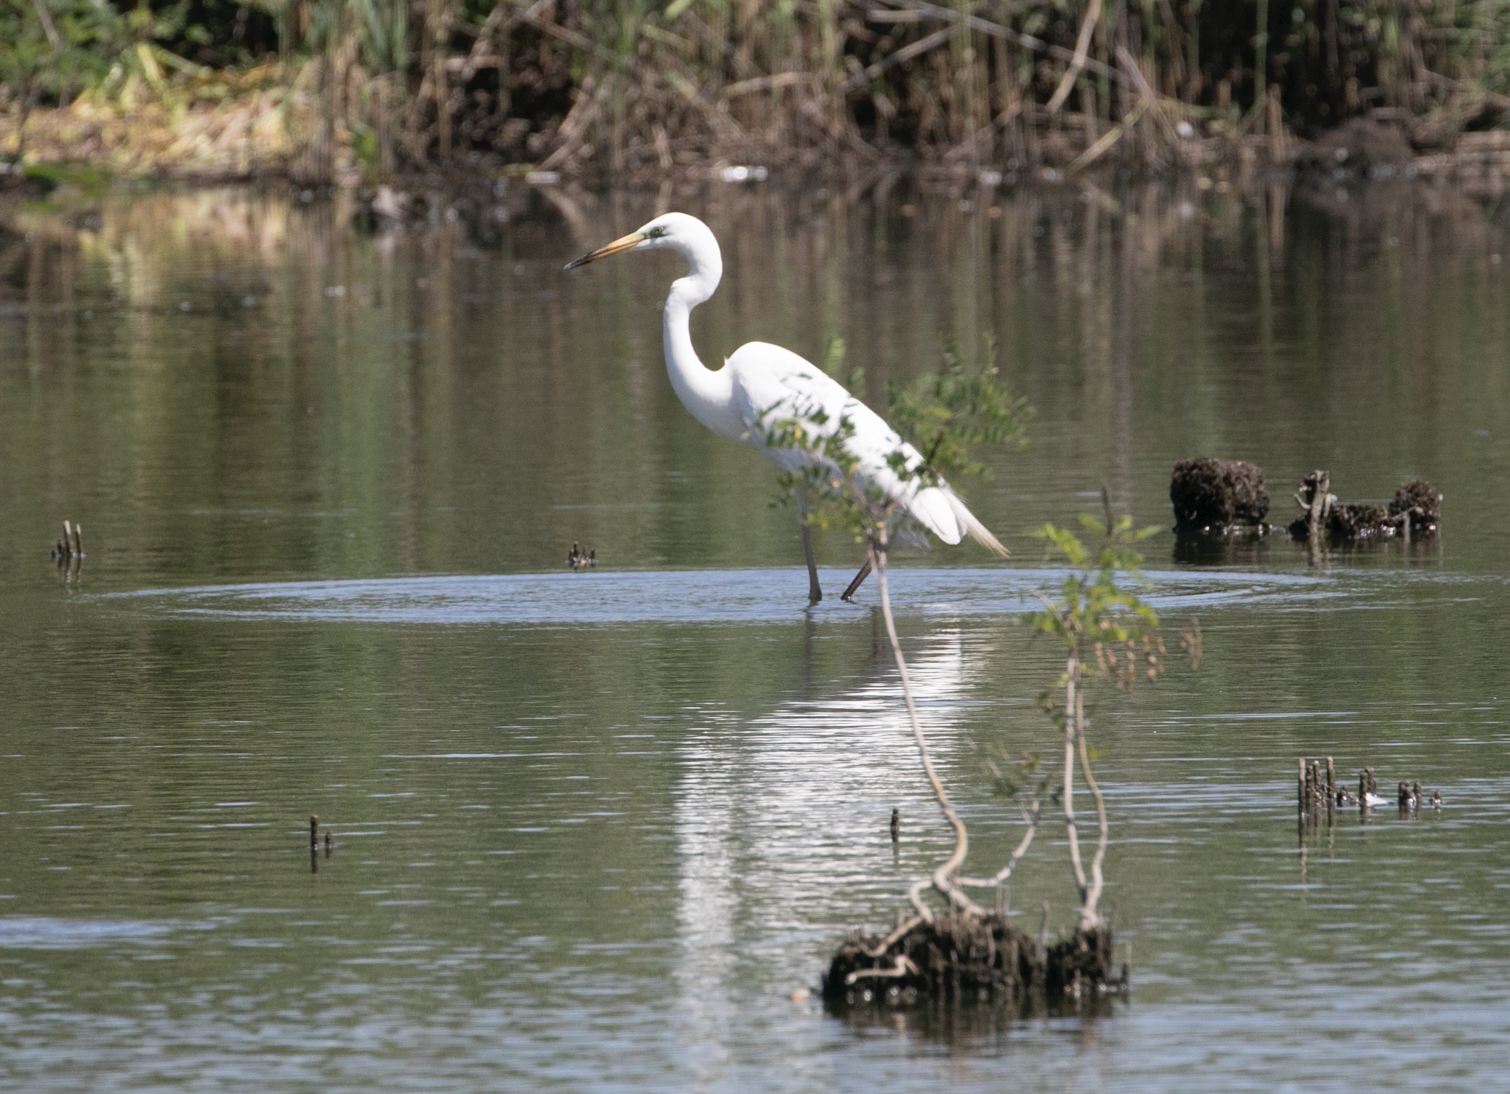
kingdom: Animalia
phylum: Chordata
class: Aves
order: Pelecaniformes
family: Ardeidae
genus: Ardea
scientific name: Ardea alba
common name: Great egret
